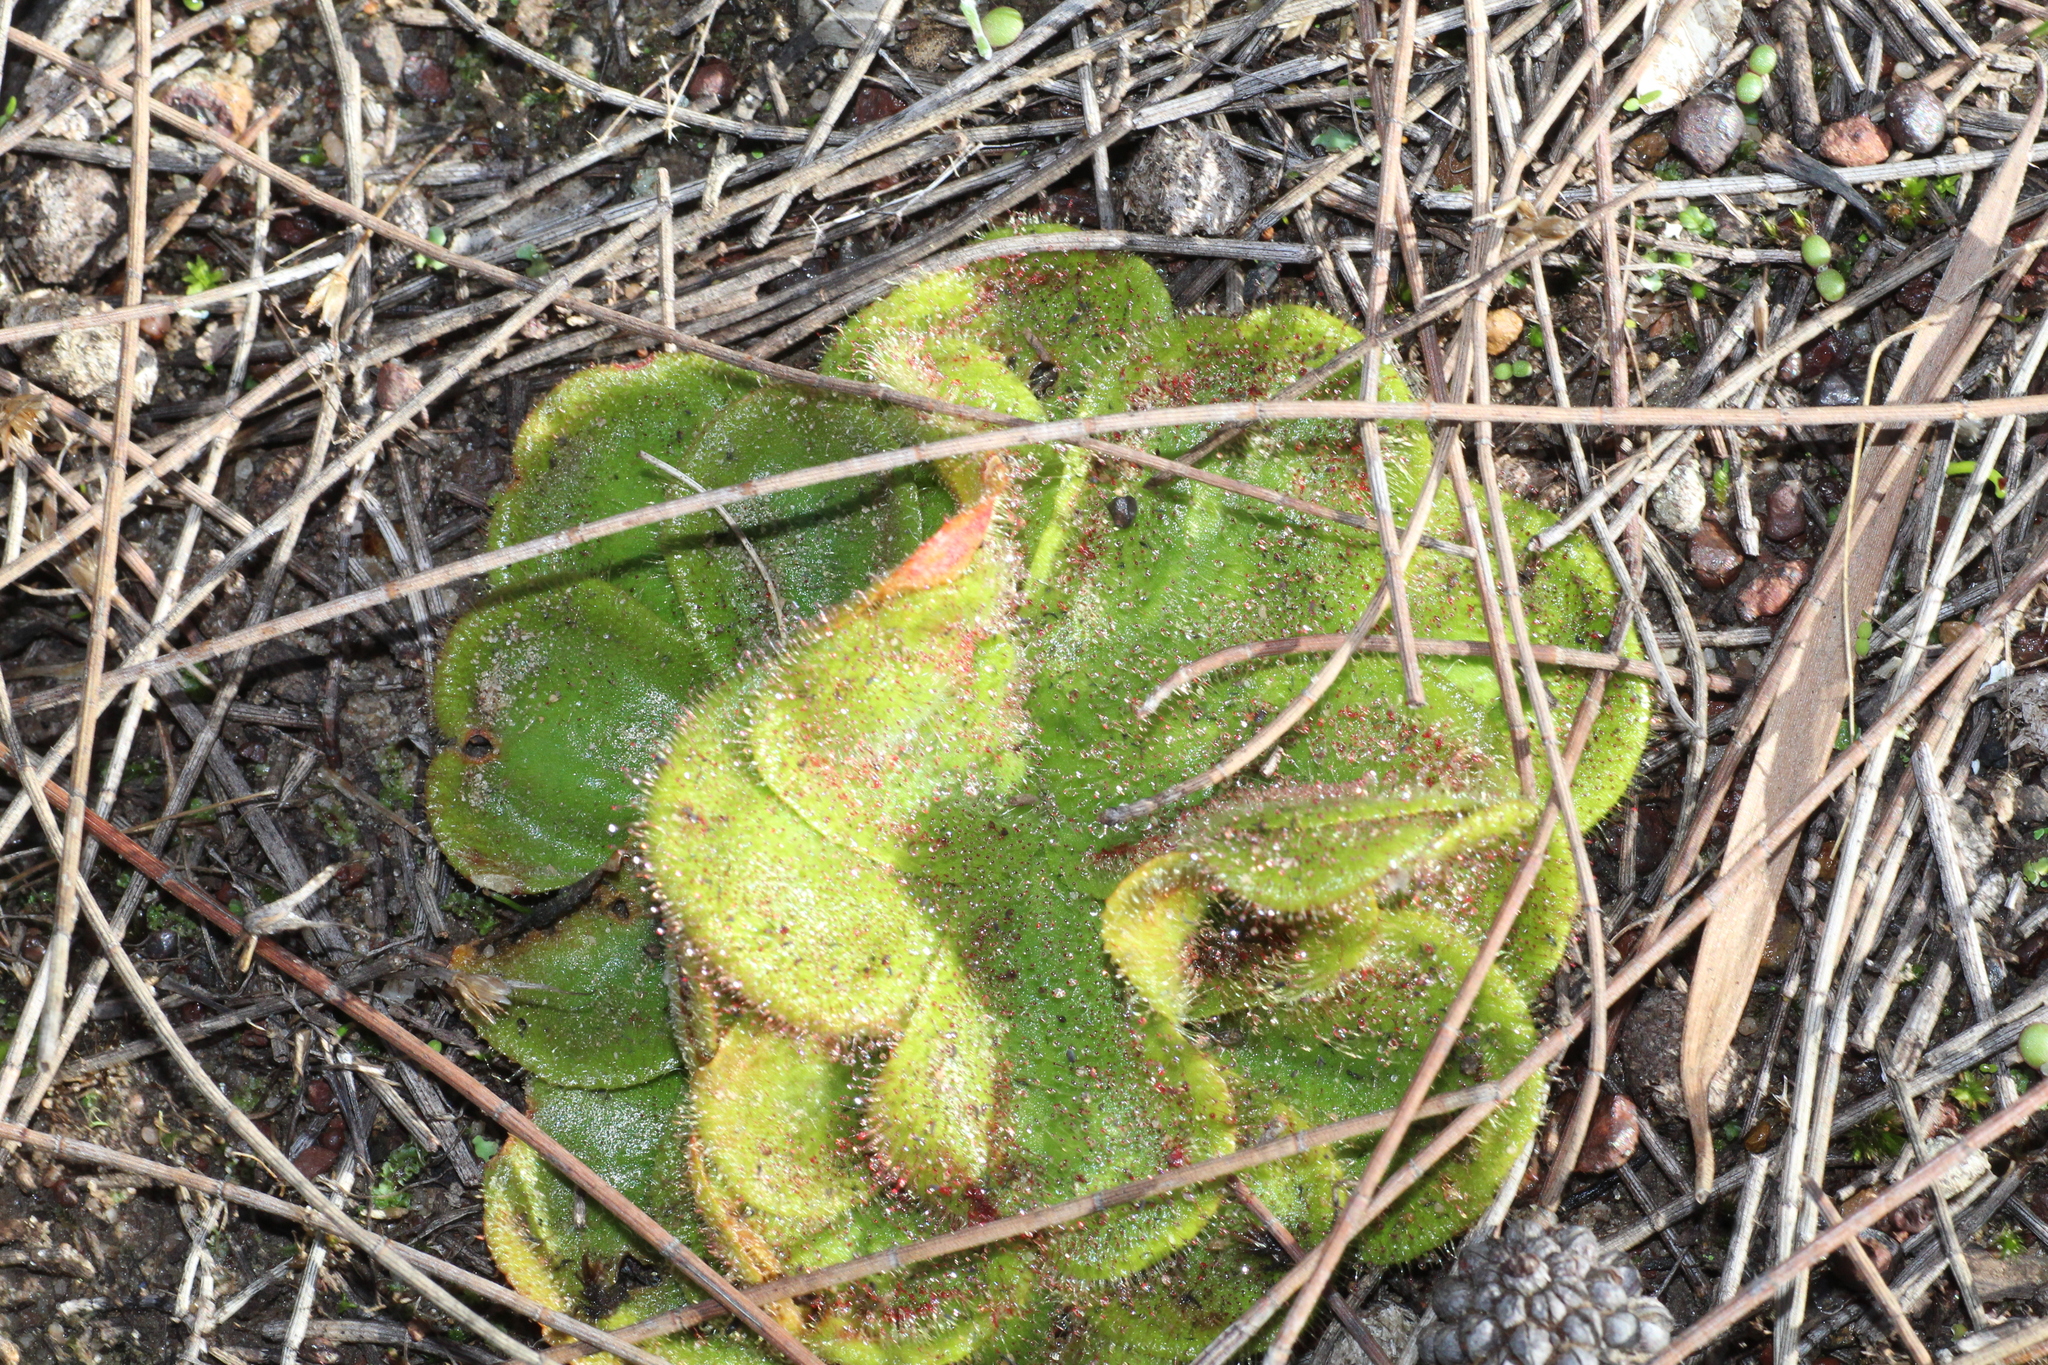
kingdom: Plantae
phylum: Tracheophyta
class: Magnoliopsida
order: Caryophyllales
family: Droseraceae
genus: Drosera
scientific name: Drosera erythrorhiza
